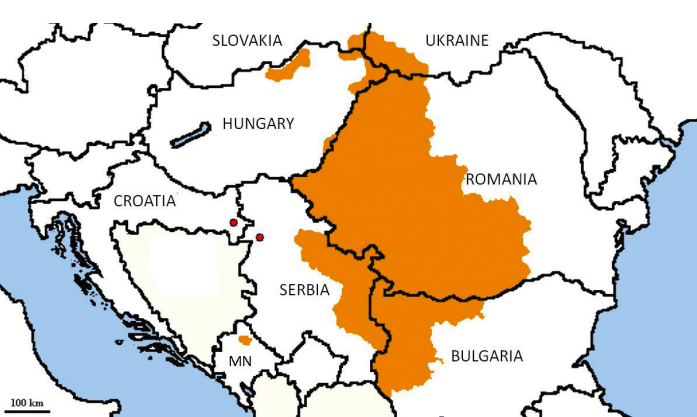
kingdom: Animalia
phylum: Arthropoda
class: Insecta
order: Orthoptera
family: Tettigoniidae
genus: Leptophyes
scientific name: Leptophyes discoidalis
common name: Blackwing speckled bush-cricket
